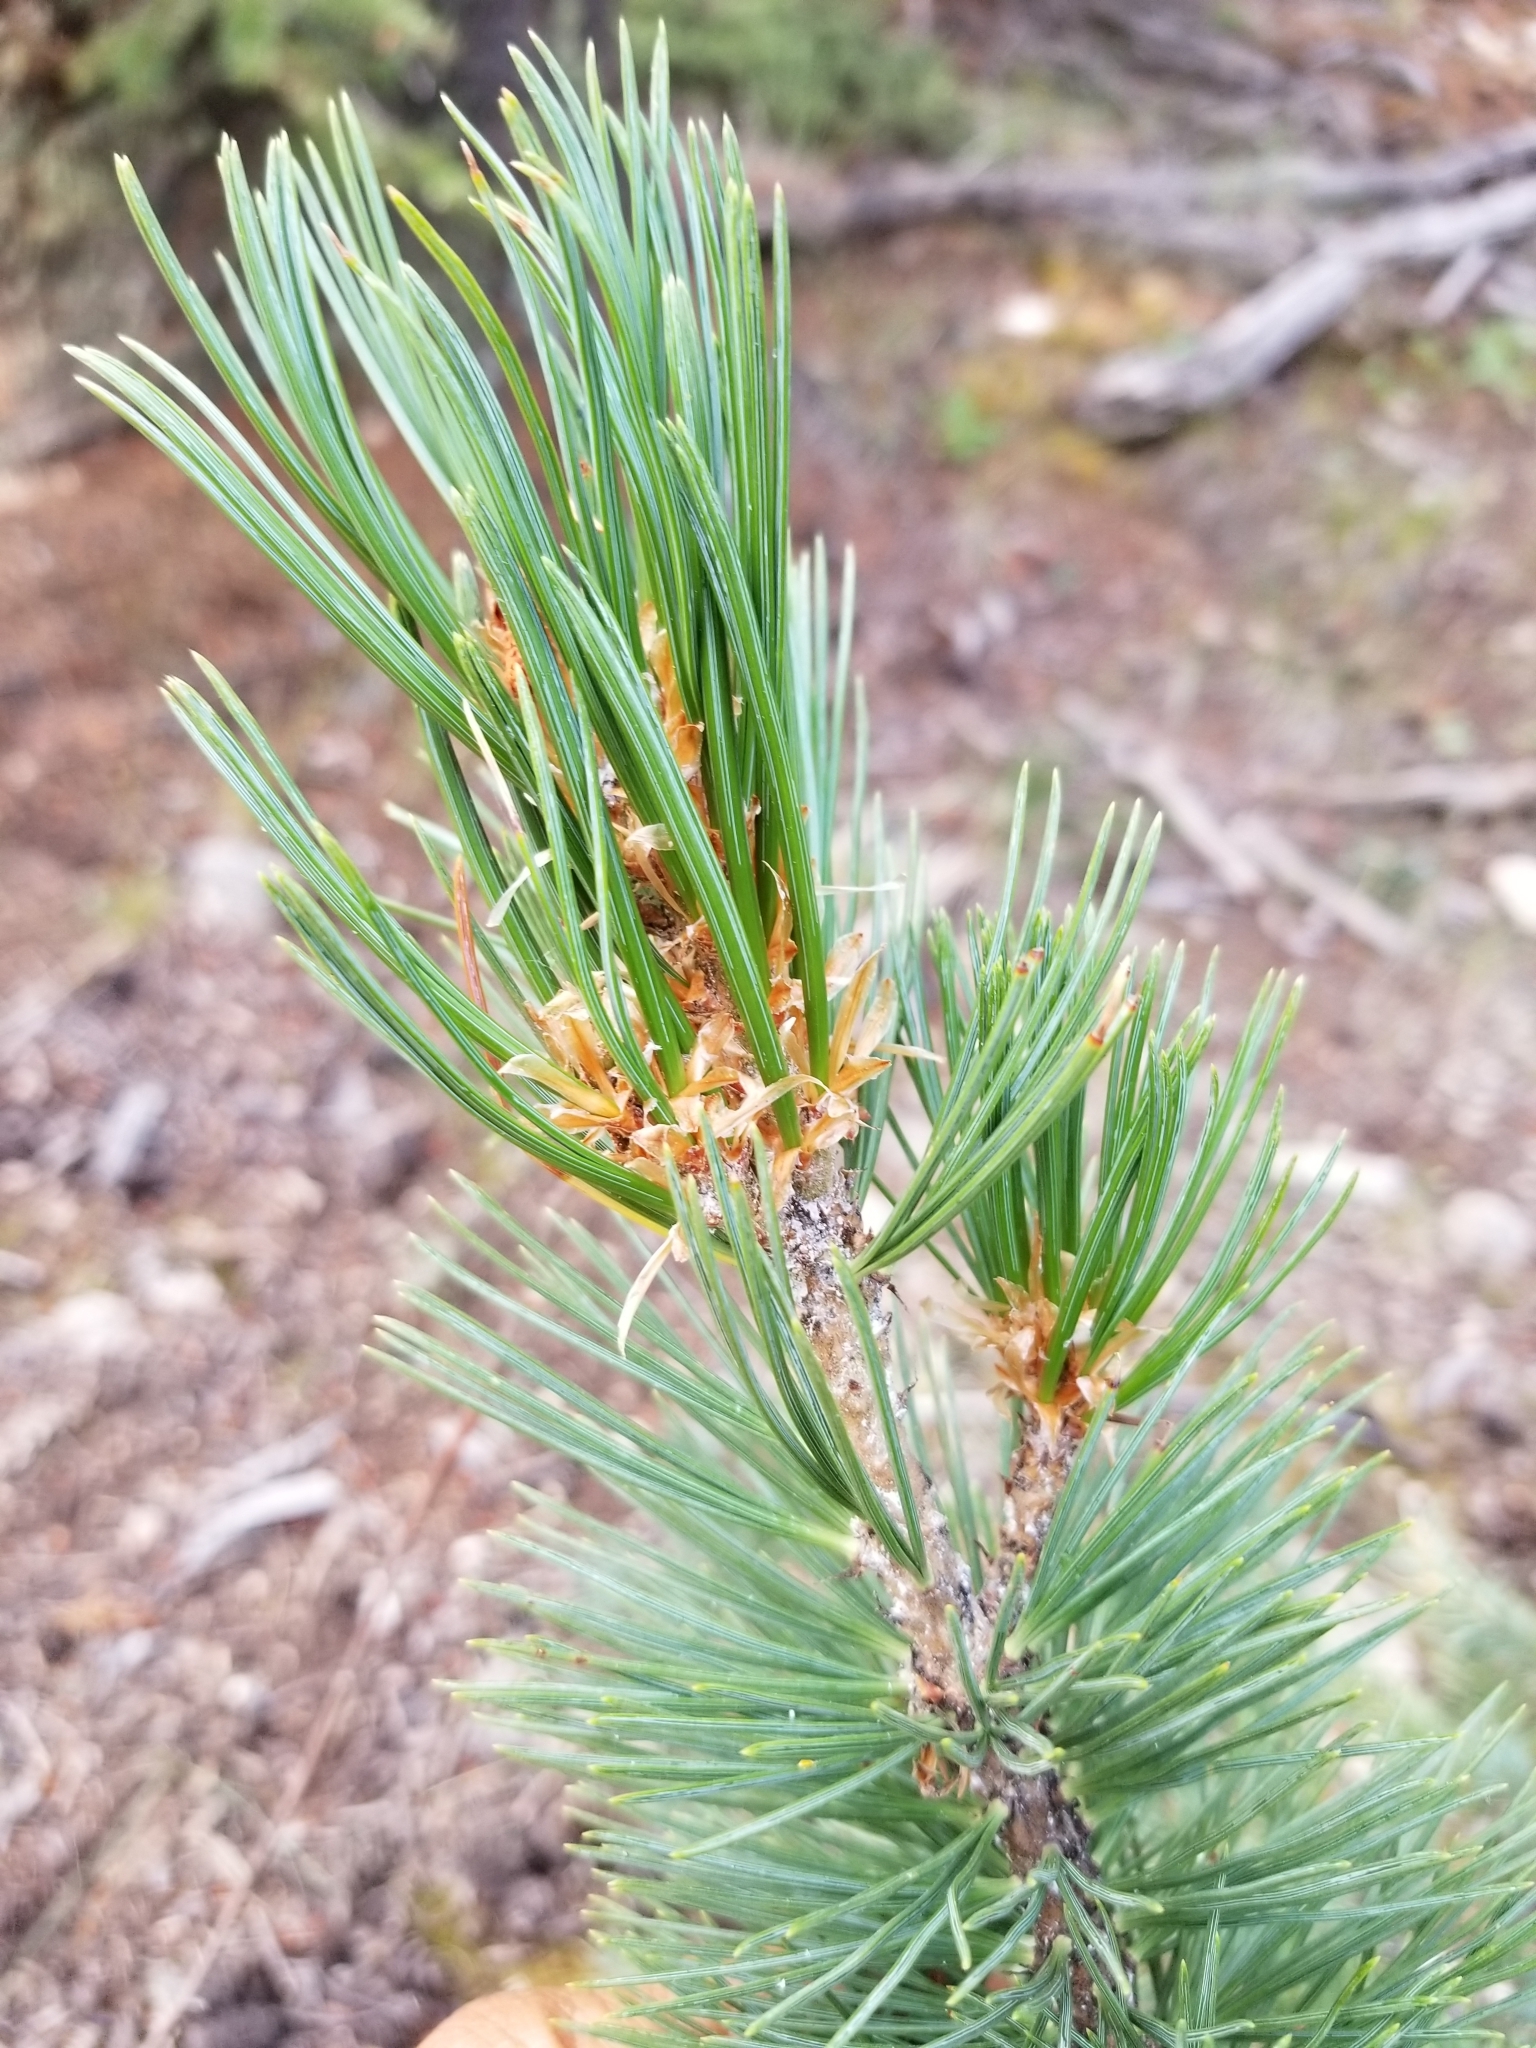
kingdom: Plantae
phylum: Tracheophyta
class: Pinopsida
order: Pinales
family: Pinaceae
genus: Pinus
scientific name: Pinus flexilis
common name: Limber pine
